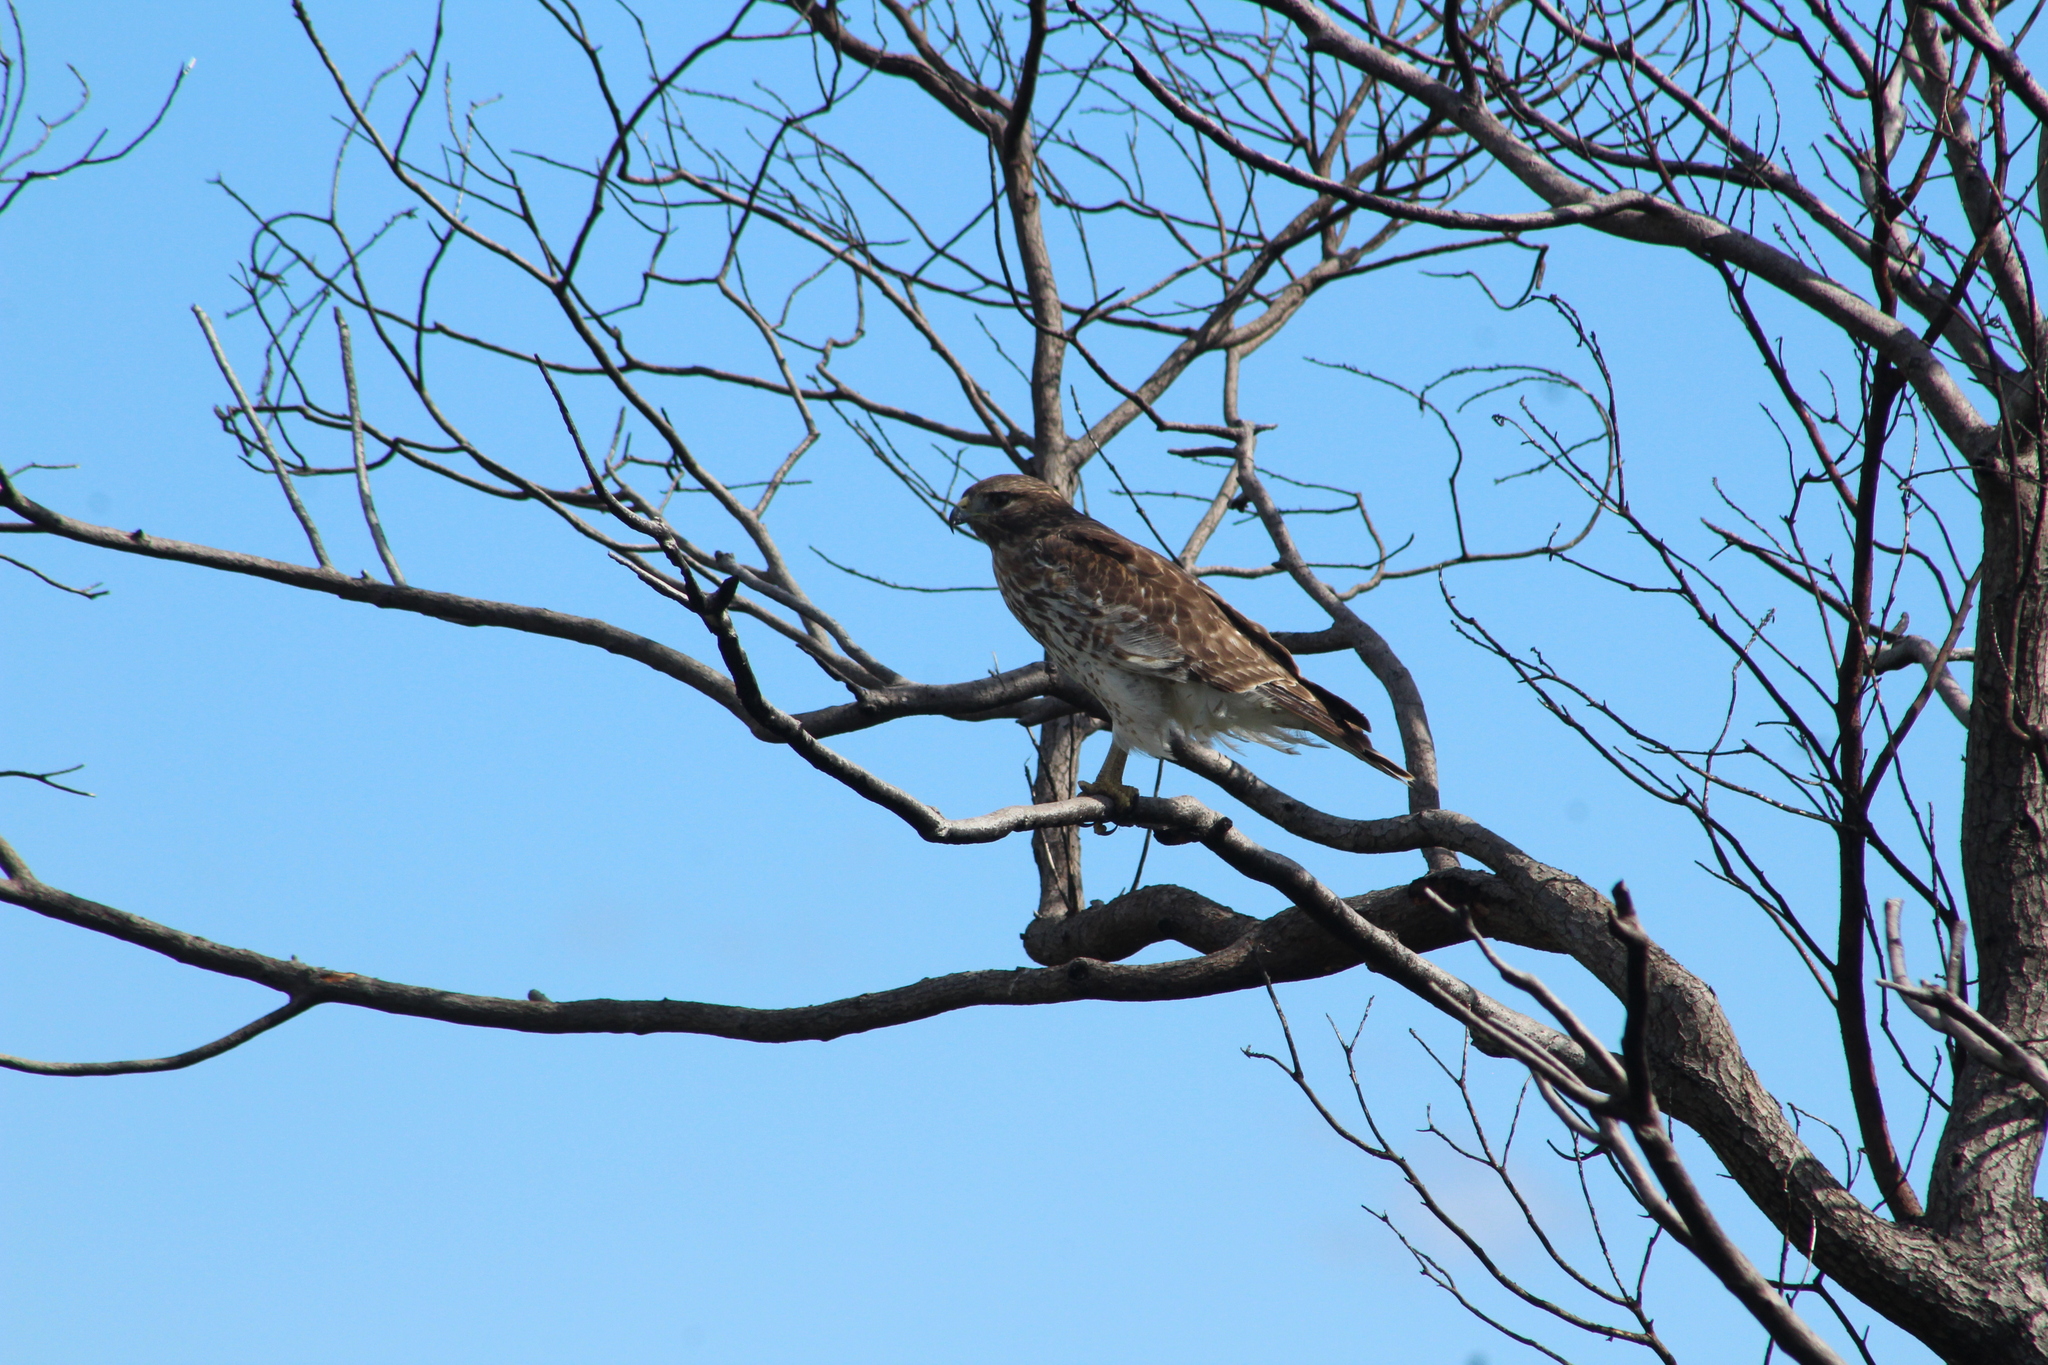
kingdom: Animalia
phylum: Chordata
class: Aves
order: Accipitriformes
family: Accipitridae
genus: Buteo
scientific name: Buteo lineatus
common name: Red-shouldered hawk
